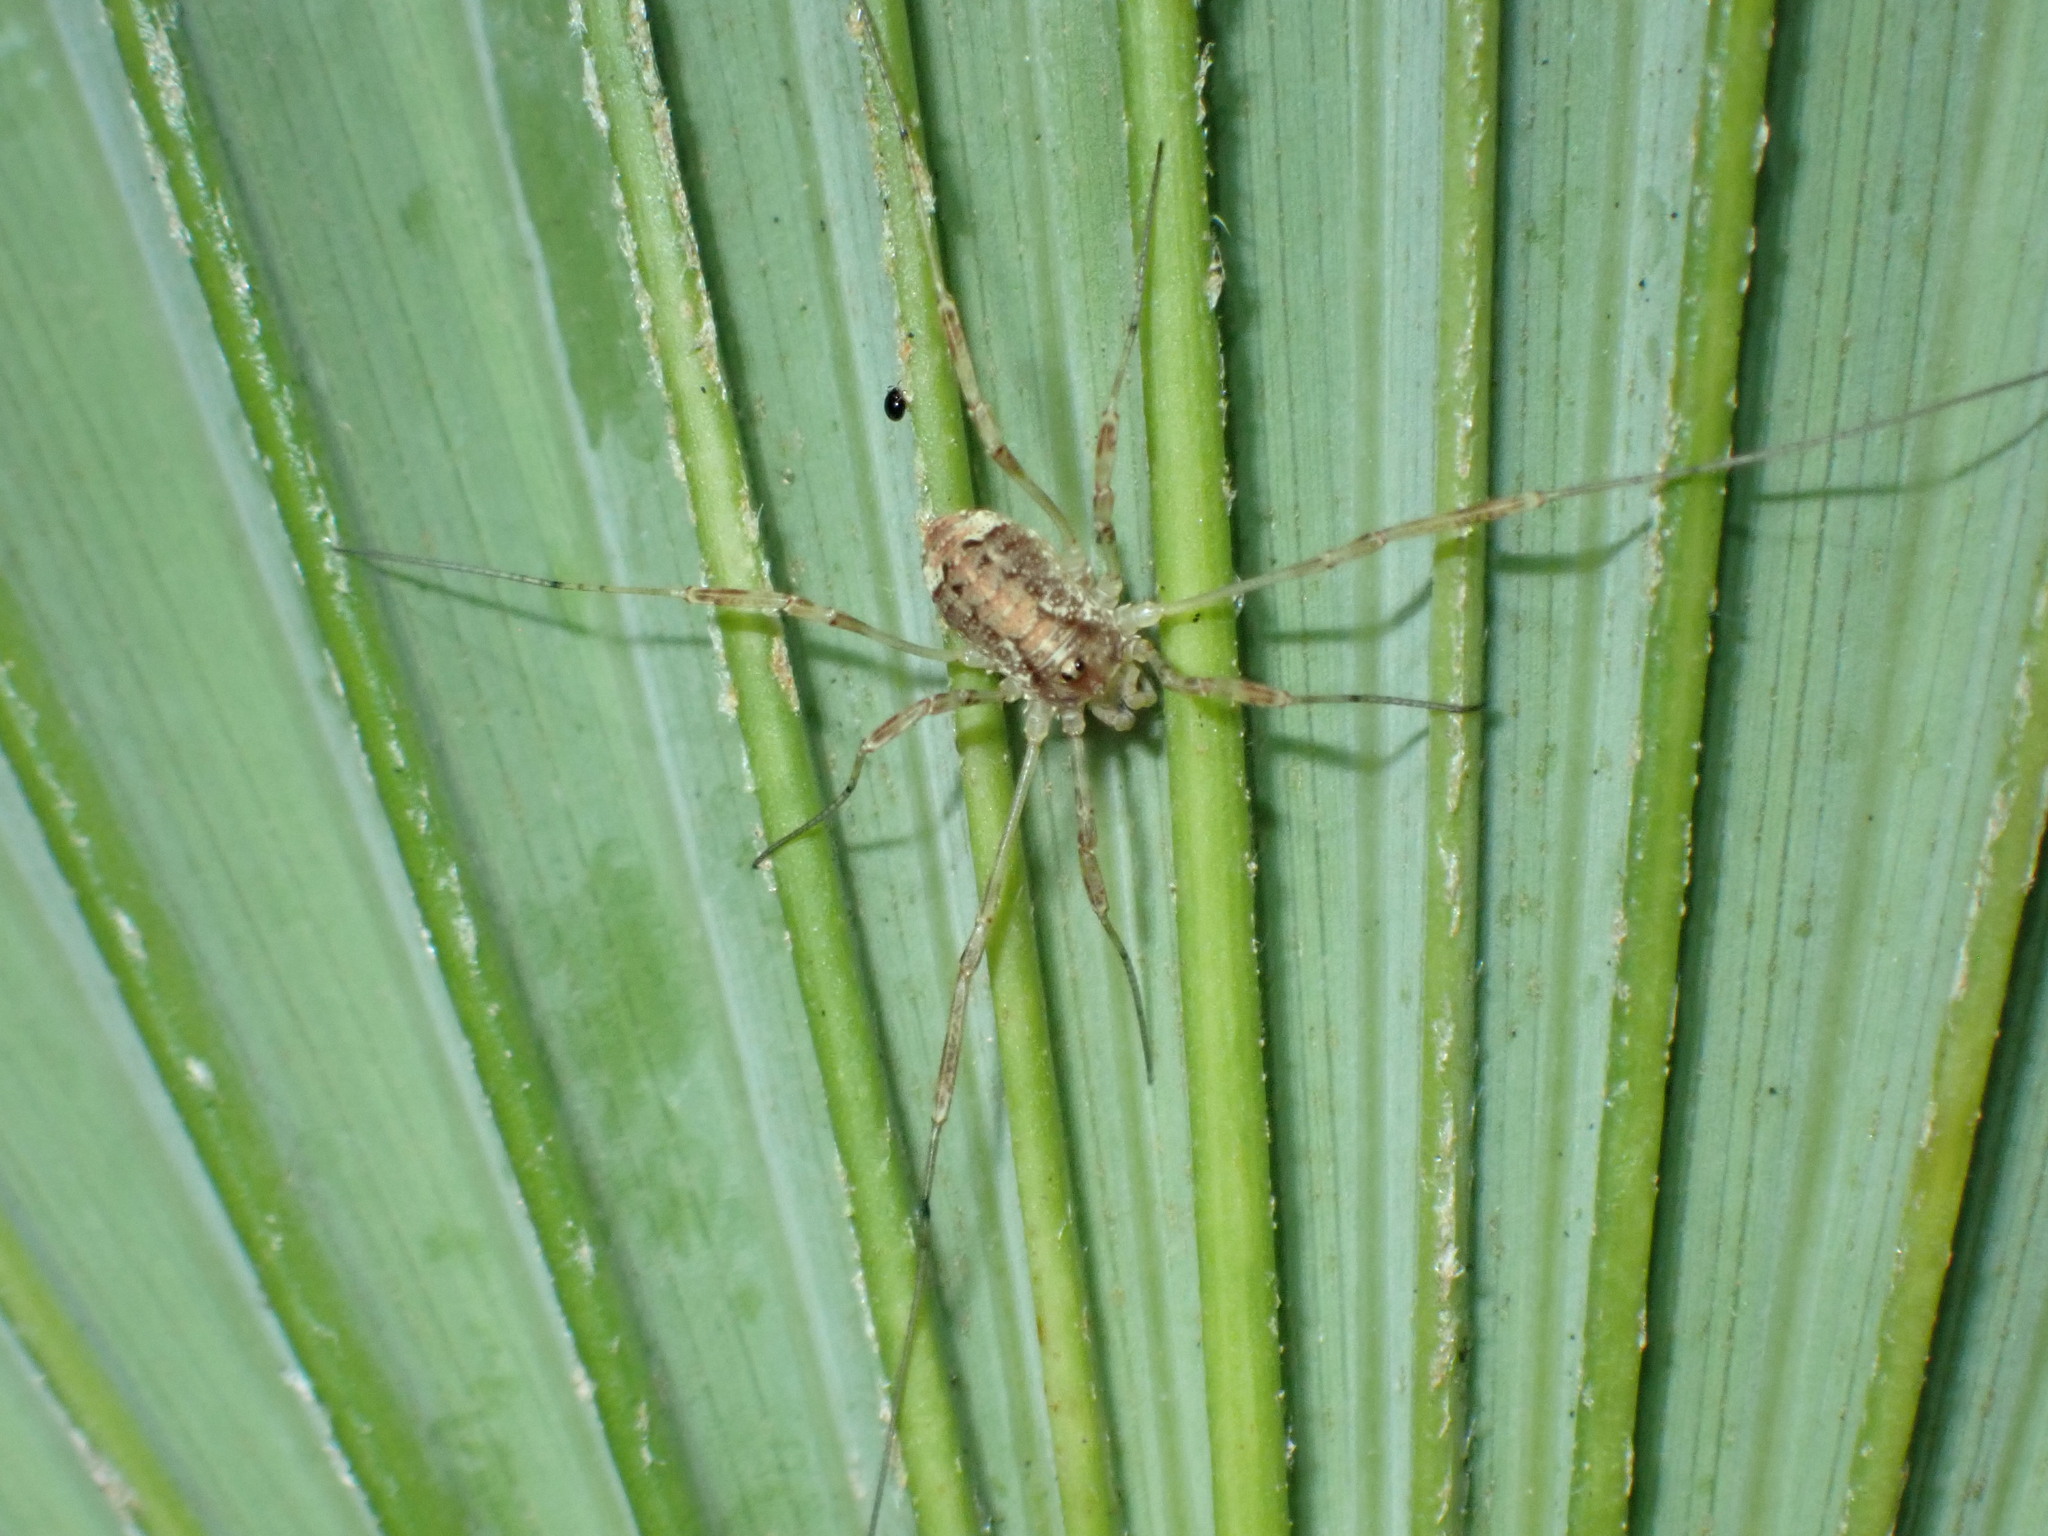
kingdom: Animalia
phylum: Arthropoda
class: Arachnida
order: Opiliones
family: Phalangiidae
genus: Paroligolophus
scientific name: Paroligolophus agrestis
